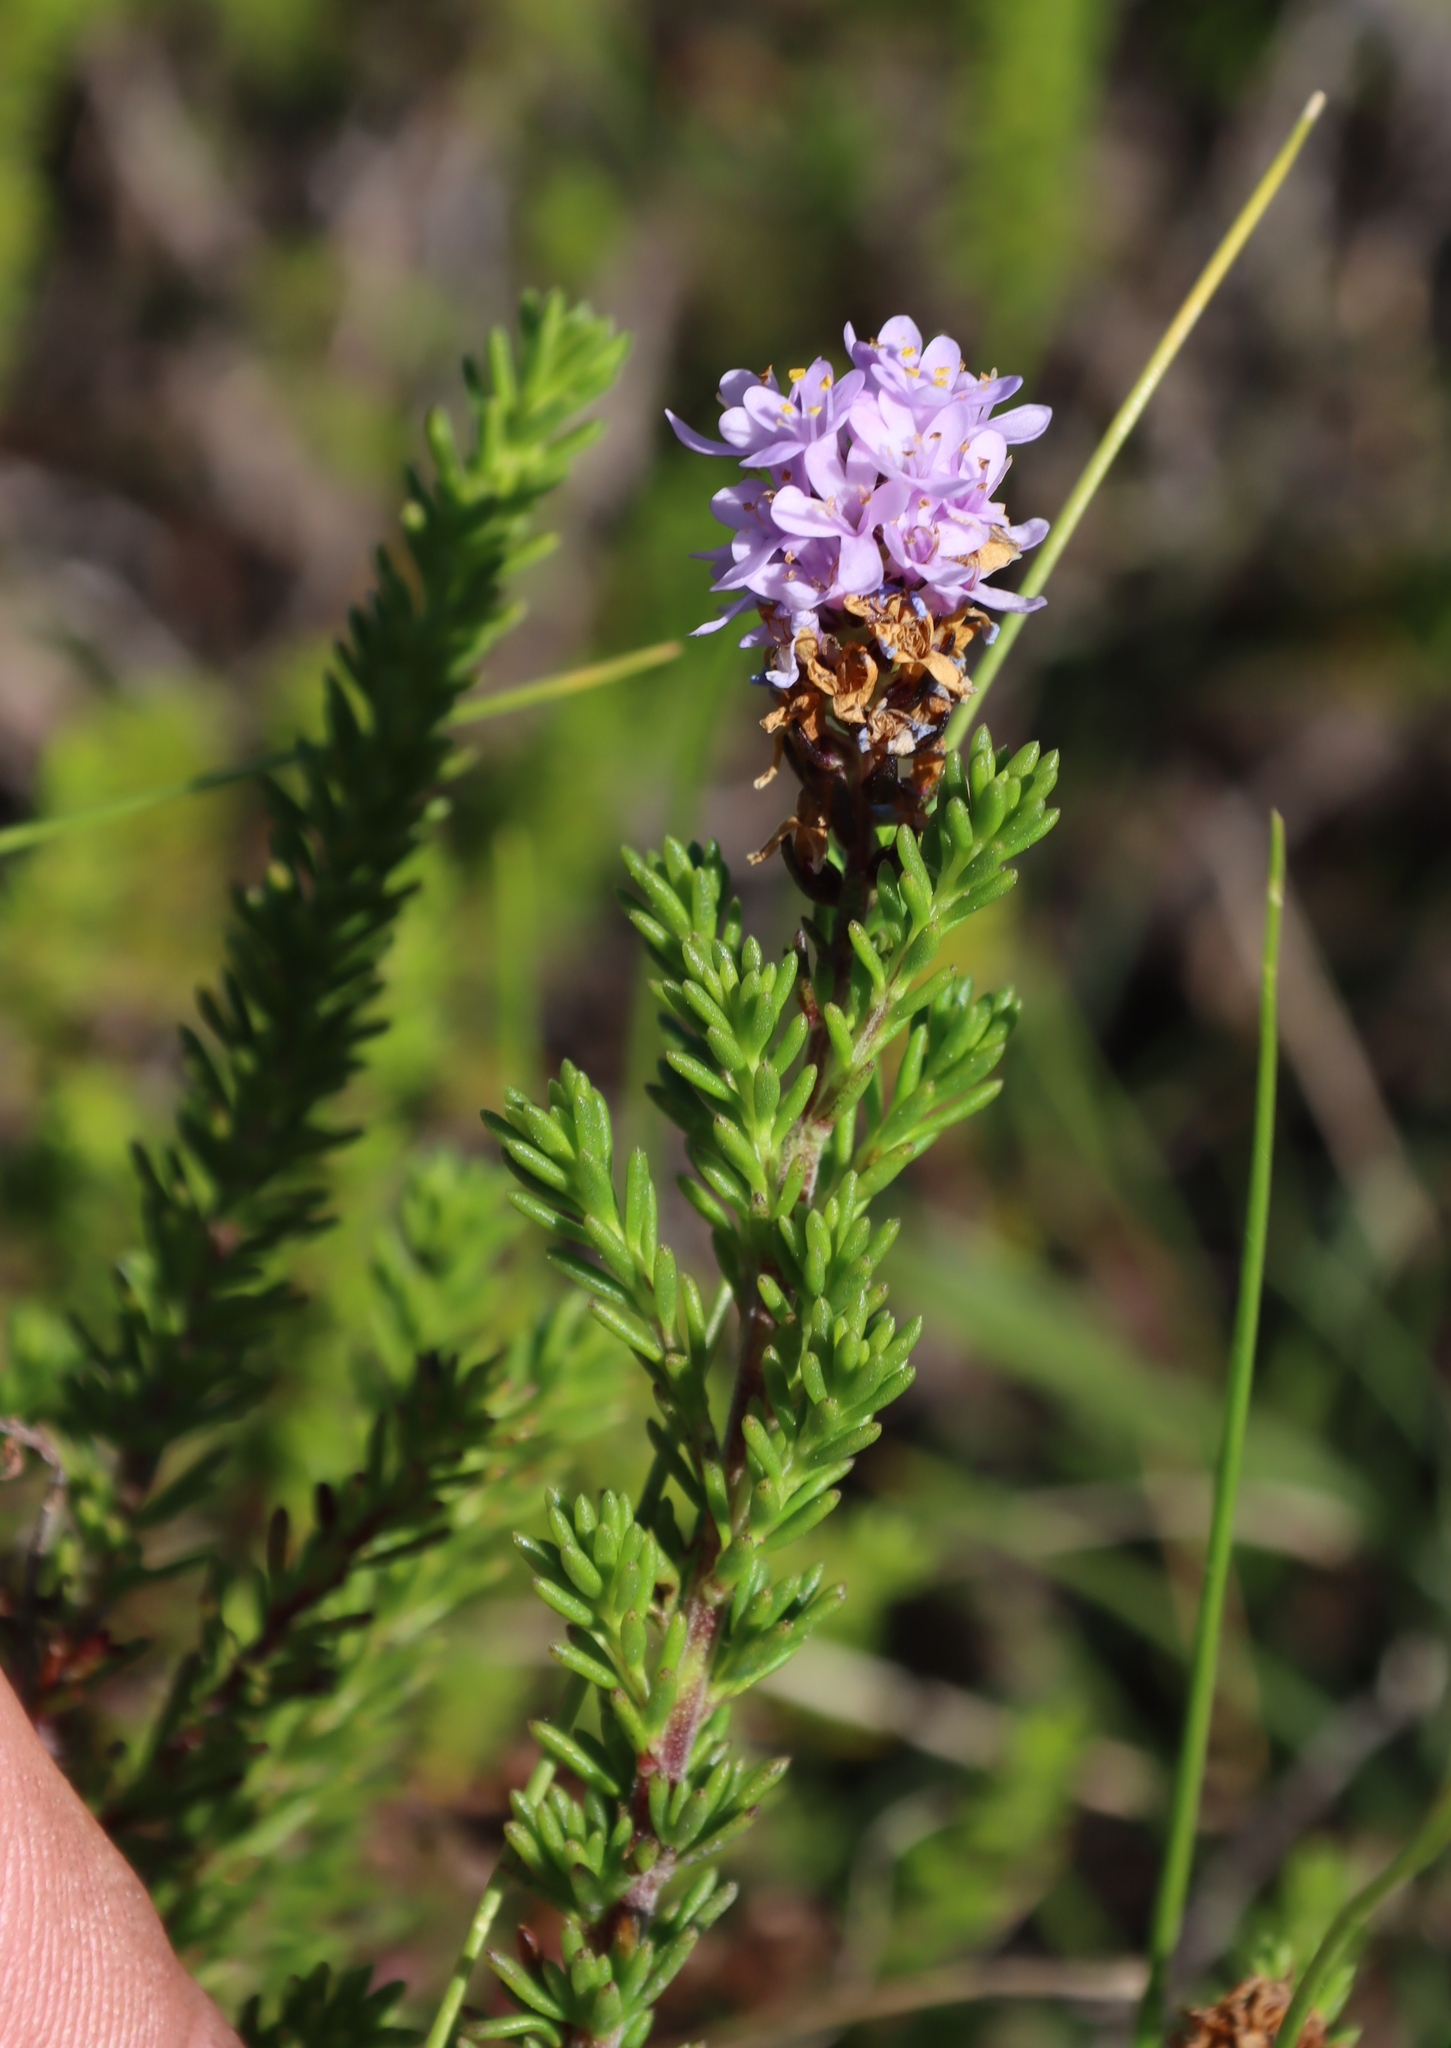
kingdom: Plantae
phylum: Tracheophyta
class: Magnoliopsida
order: Lamiales
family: Scrophulariaceae
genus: Selago
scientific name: Selago villicaulis
